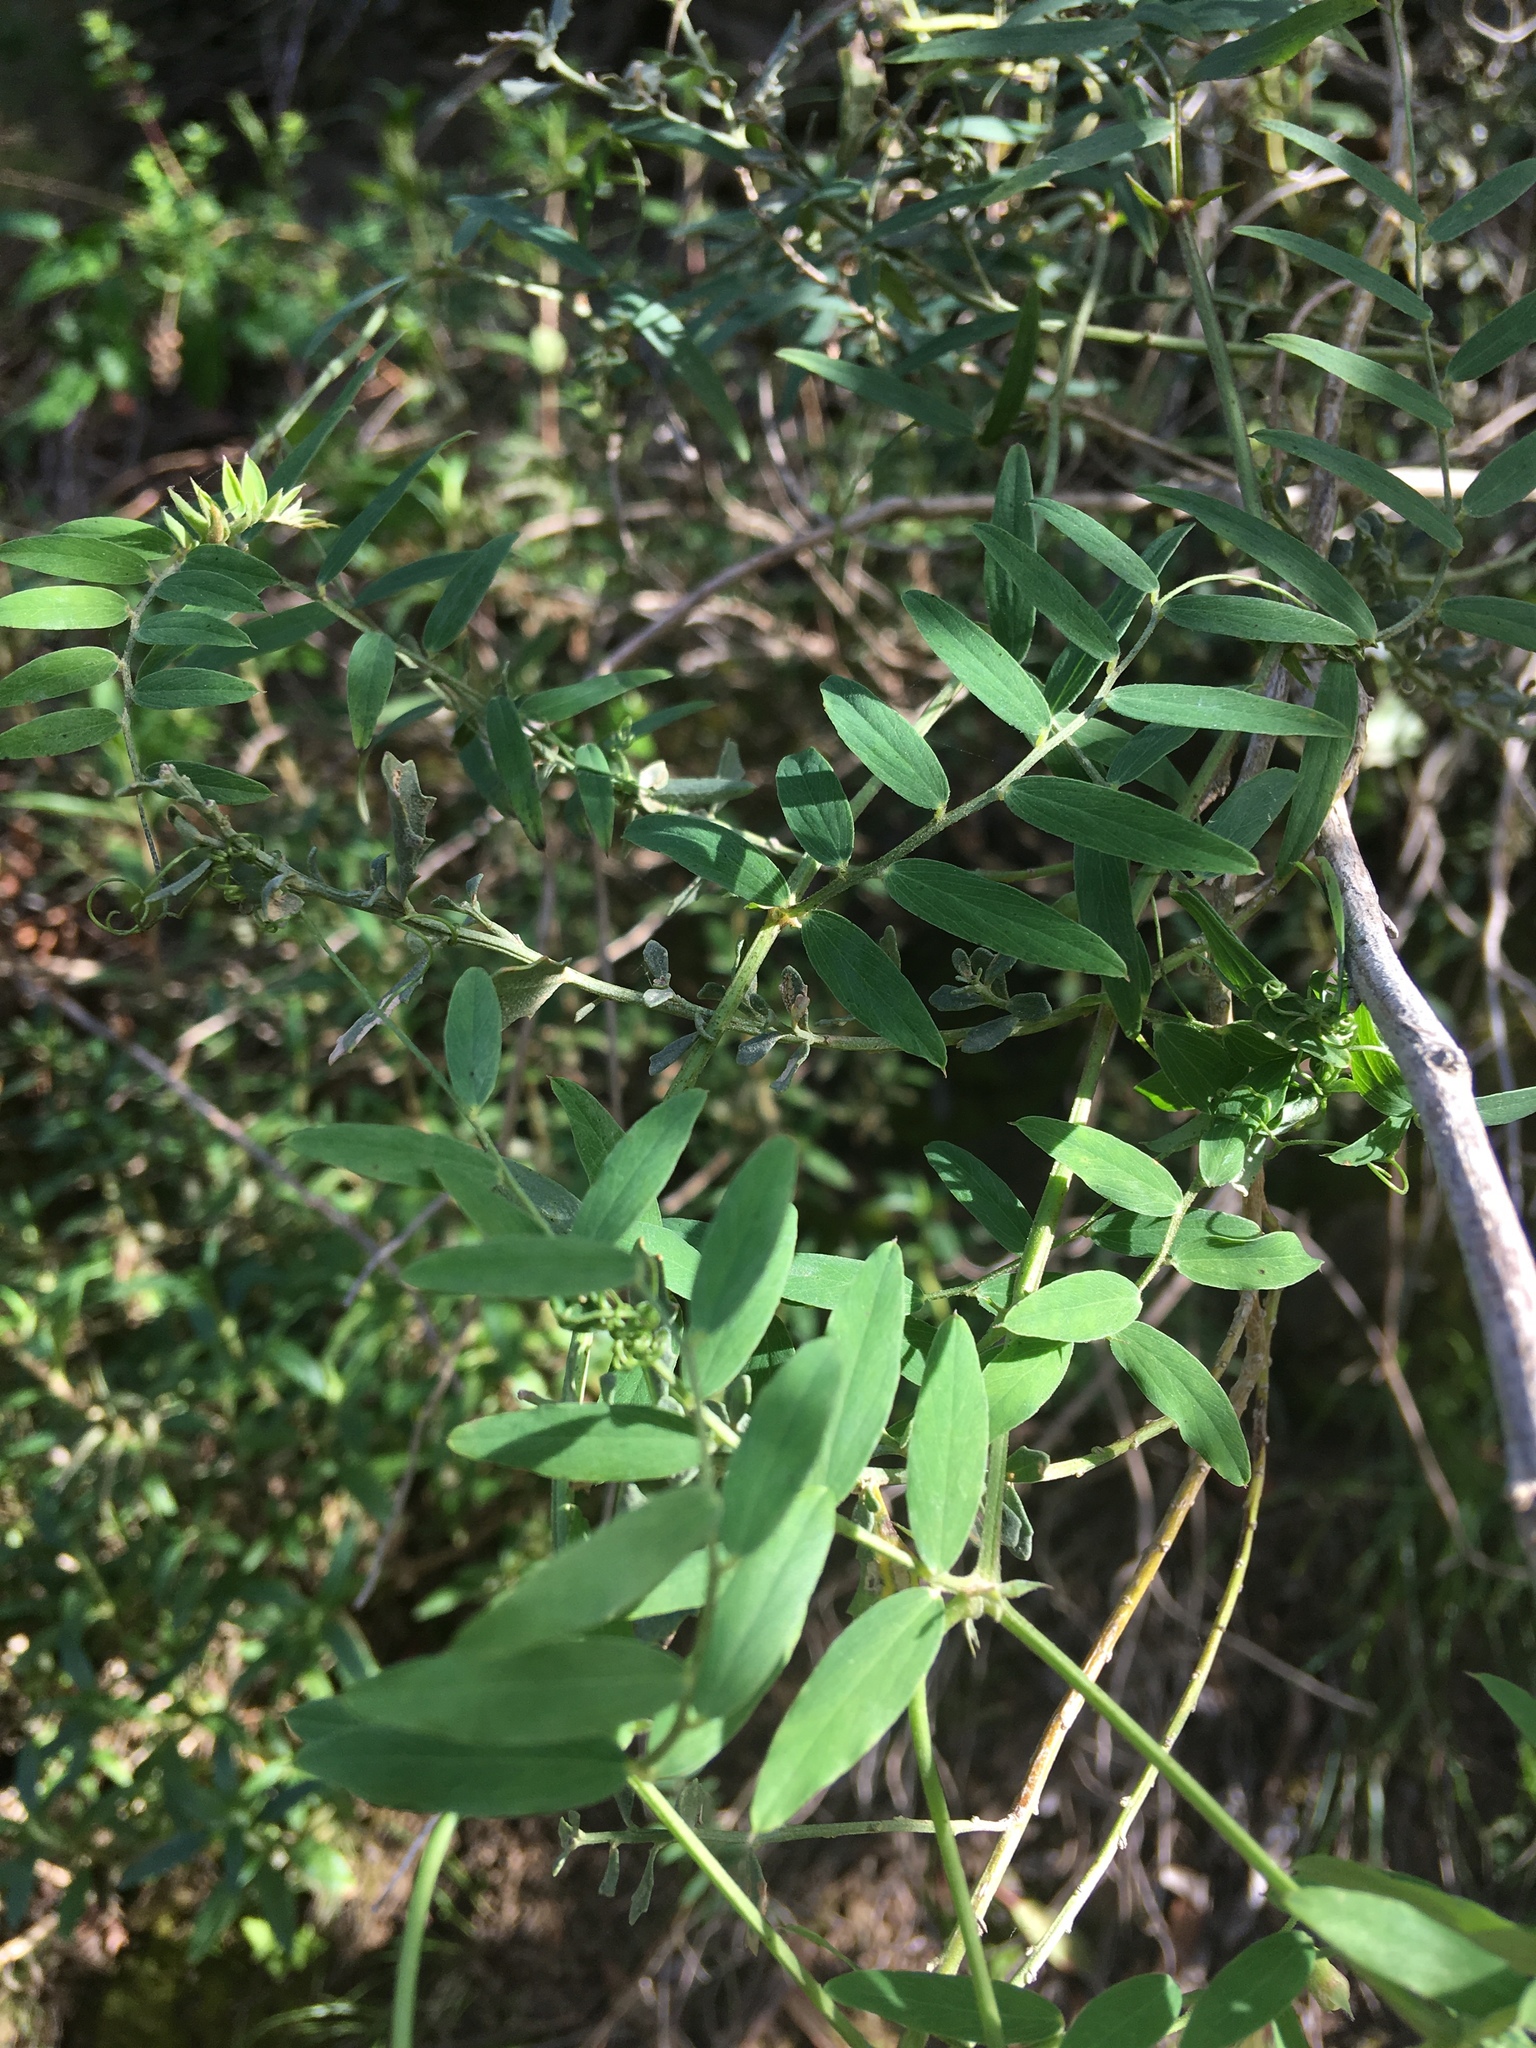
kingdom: Plantae
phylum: Tracheophyta
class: Magnoliopsida
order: Fabales
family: Fabaceae
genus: Lathyrus
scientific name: Lathyrus vestitus
